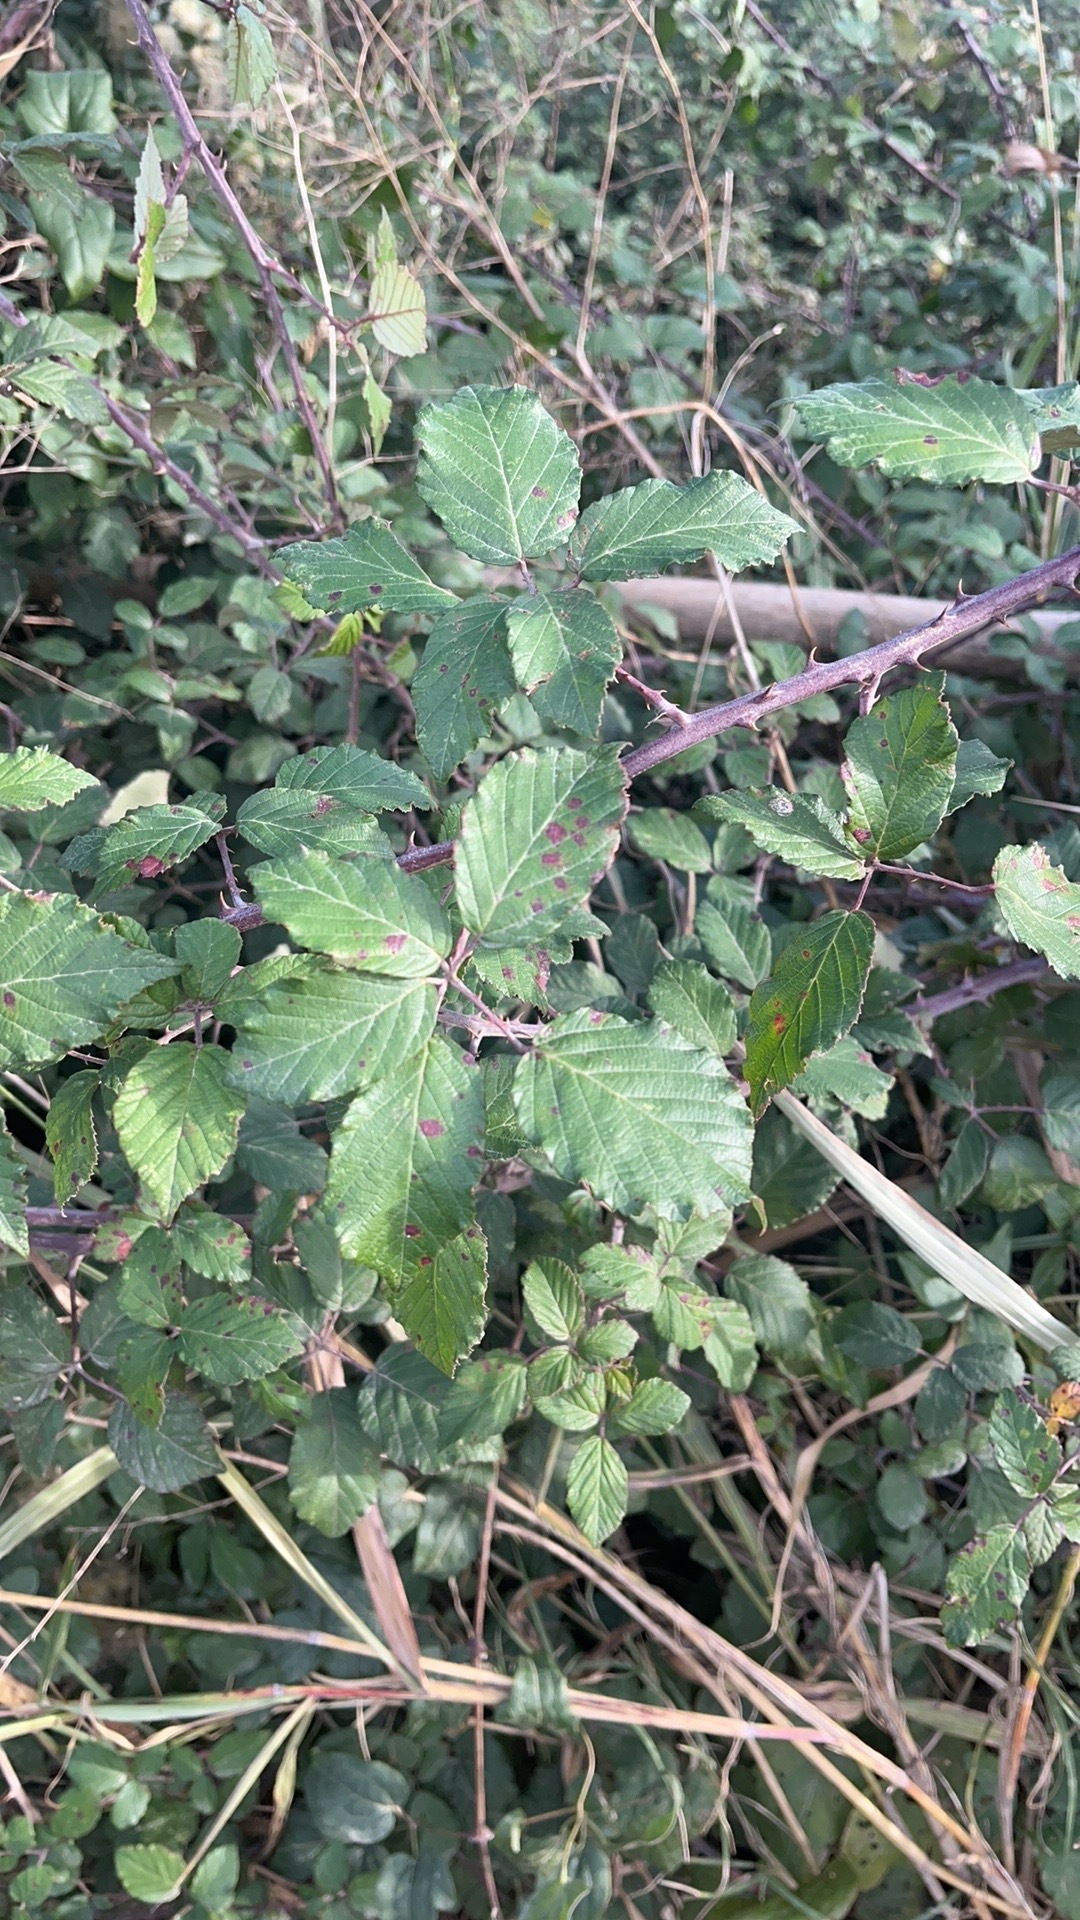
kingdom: Plantae
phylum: Tracheophyta
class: Magnoliopsida
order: Rosales
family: Rosaceae
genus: Rubus
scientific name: Rubus ulmifolius
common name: Elmleaf blackberry
